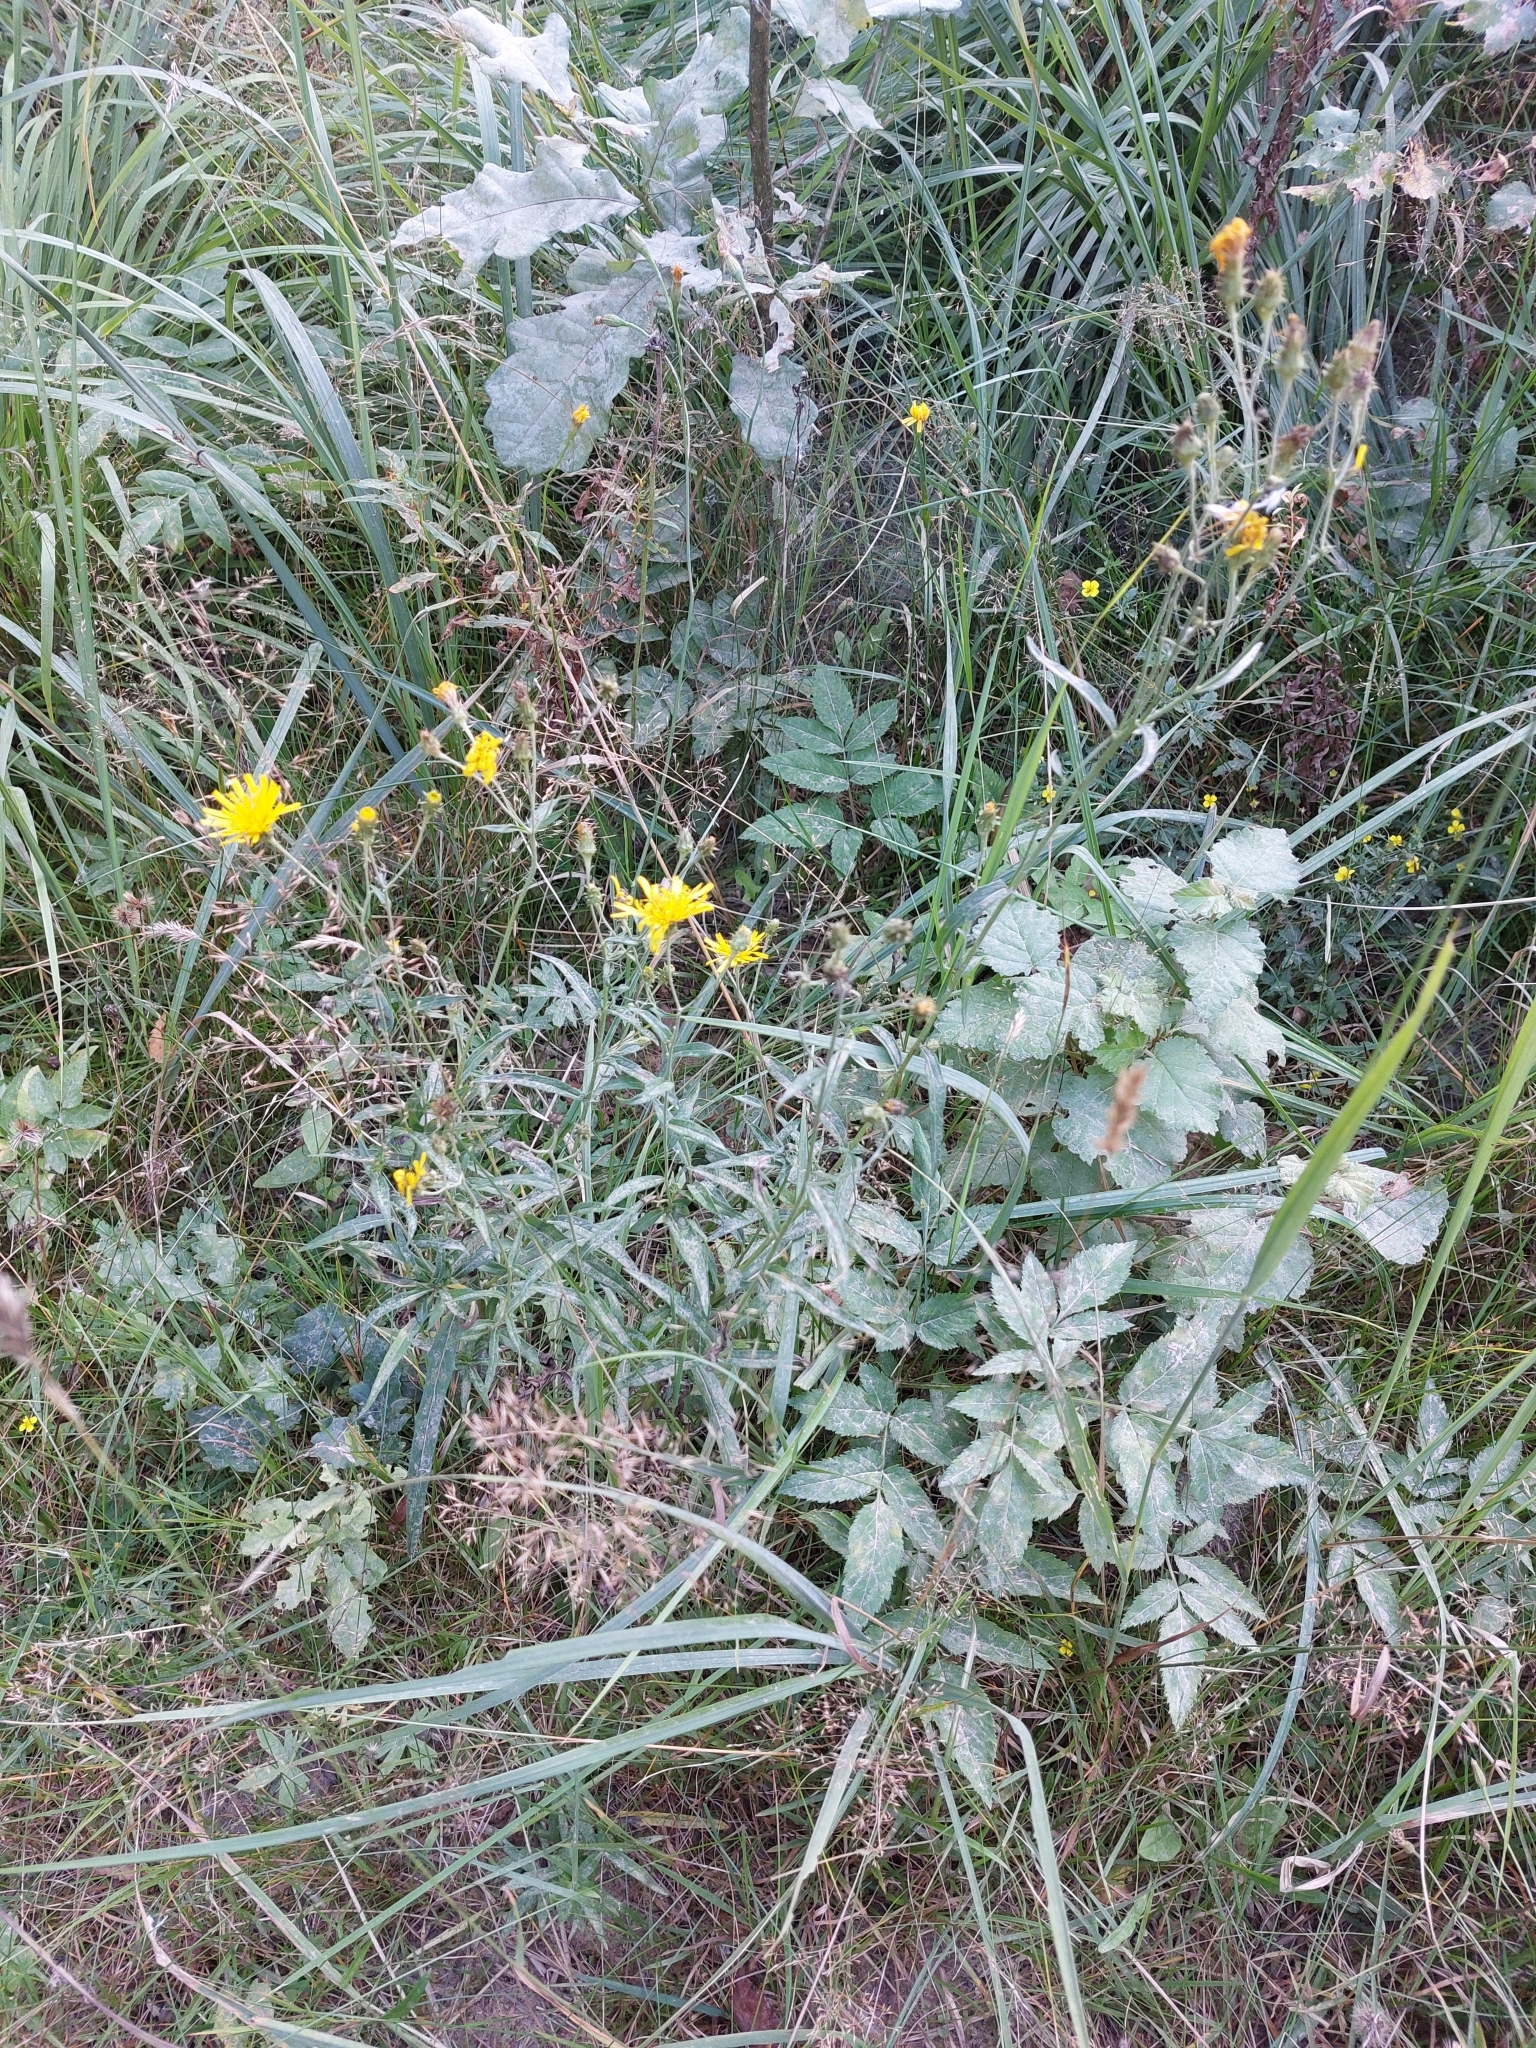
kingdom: Plantae
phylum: Tracheophyta
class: Magnoliopsida
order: Asterales
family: Asteraceae
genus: Hieracium
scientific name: Hieracium umbellatum
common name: Northern hawkweed
